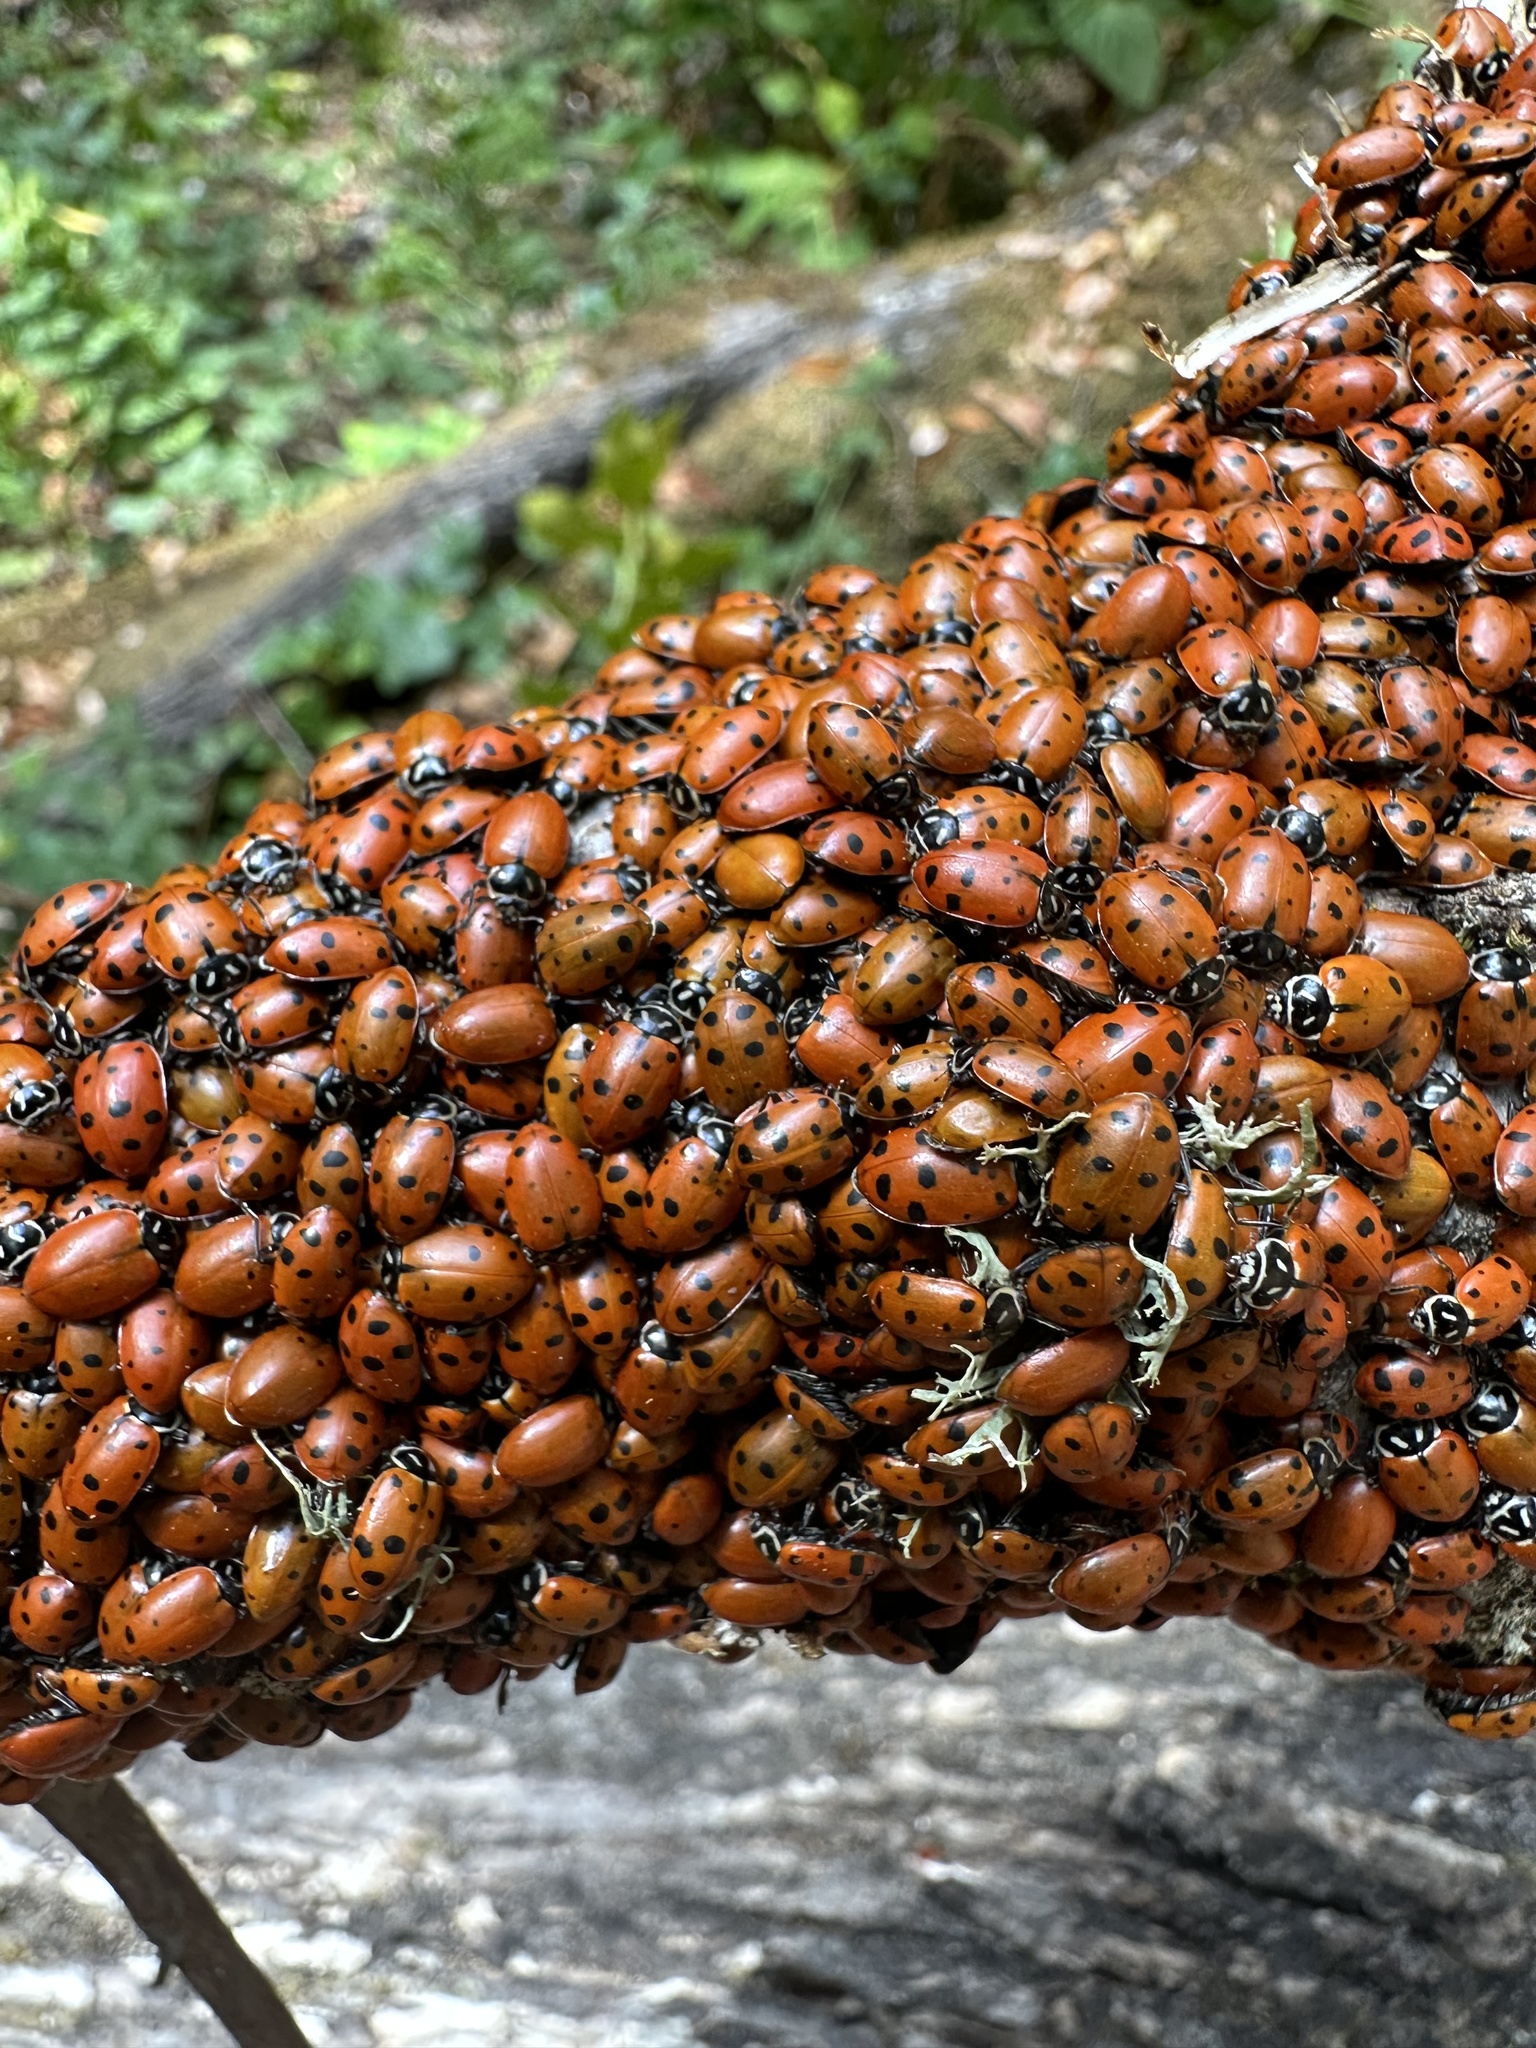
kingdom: Animalia
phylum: Arthropoda
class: Insecta
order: Coleoptera
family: Coccinellidae
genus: Hippodamia
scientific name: Hippodamia convergens
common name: Convergent lady beetle
